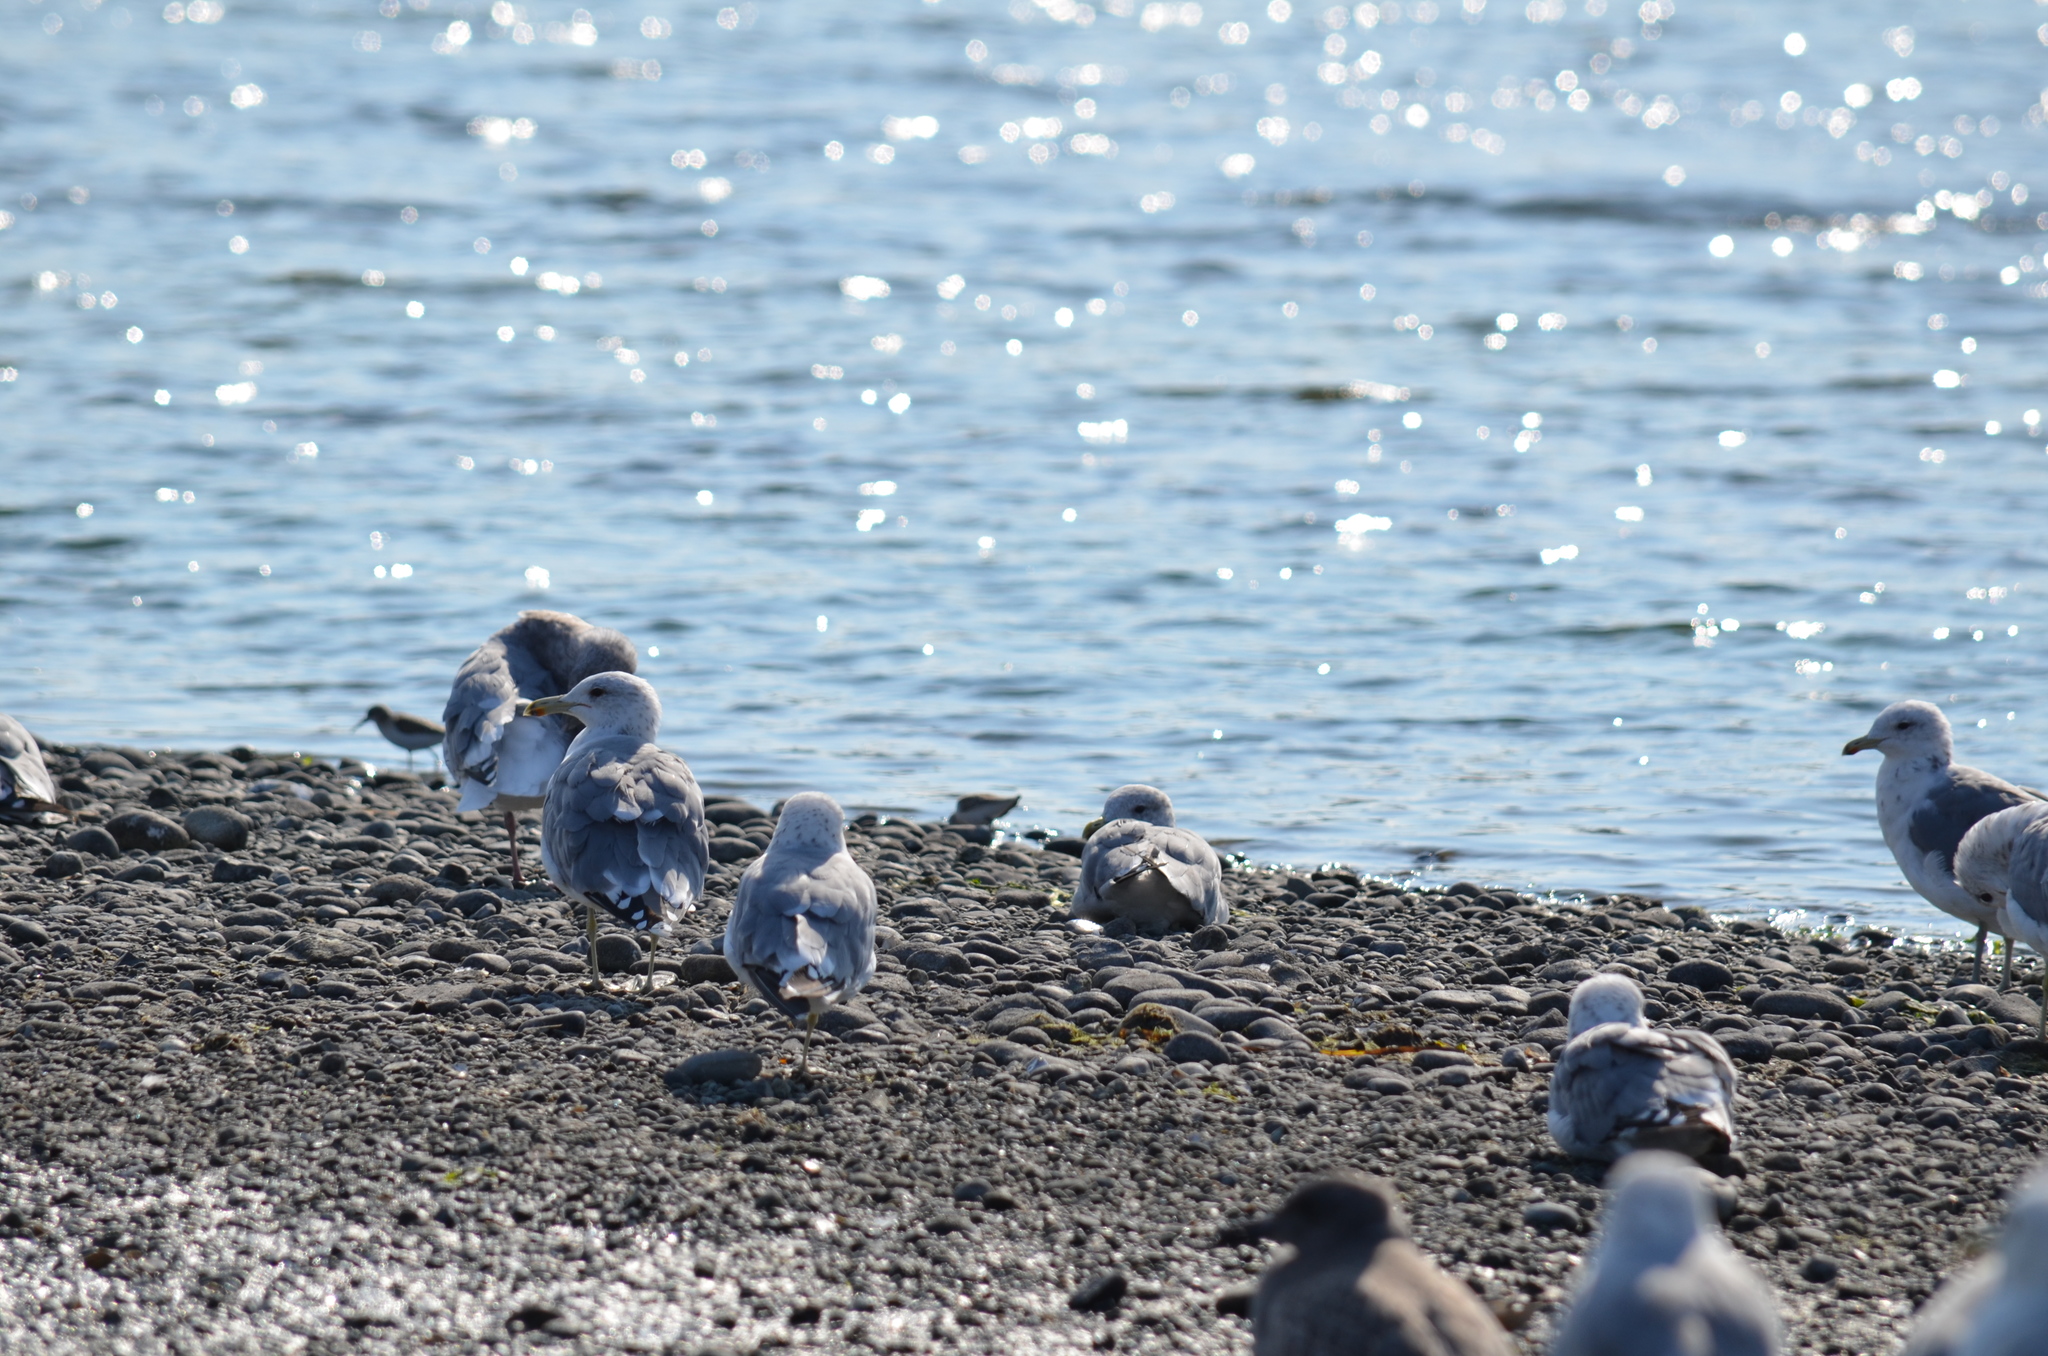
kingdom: Animalia
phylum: Chordata
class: Aves
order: Charadriiformes
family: Laridae
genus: Larus
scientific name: Larus californicus
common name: California gull
